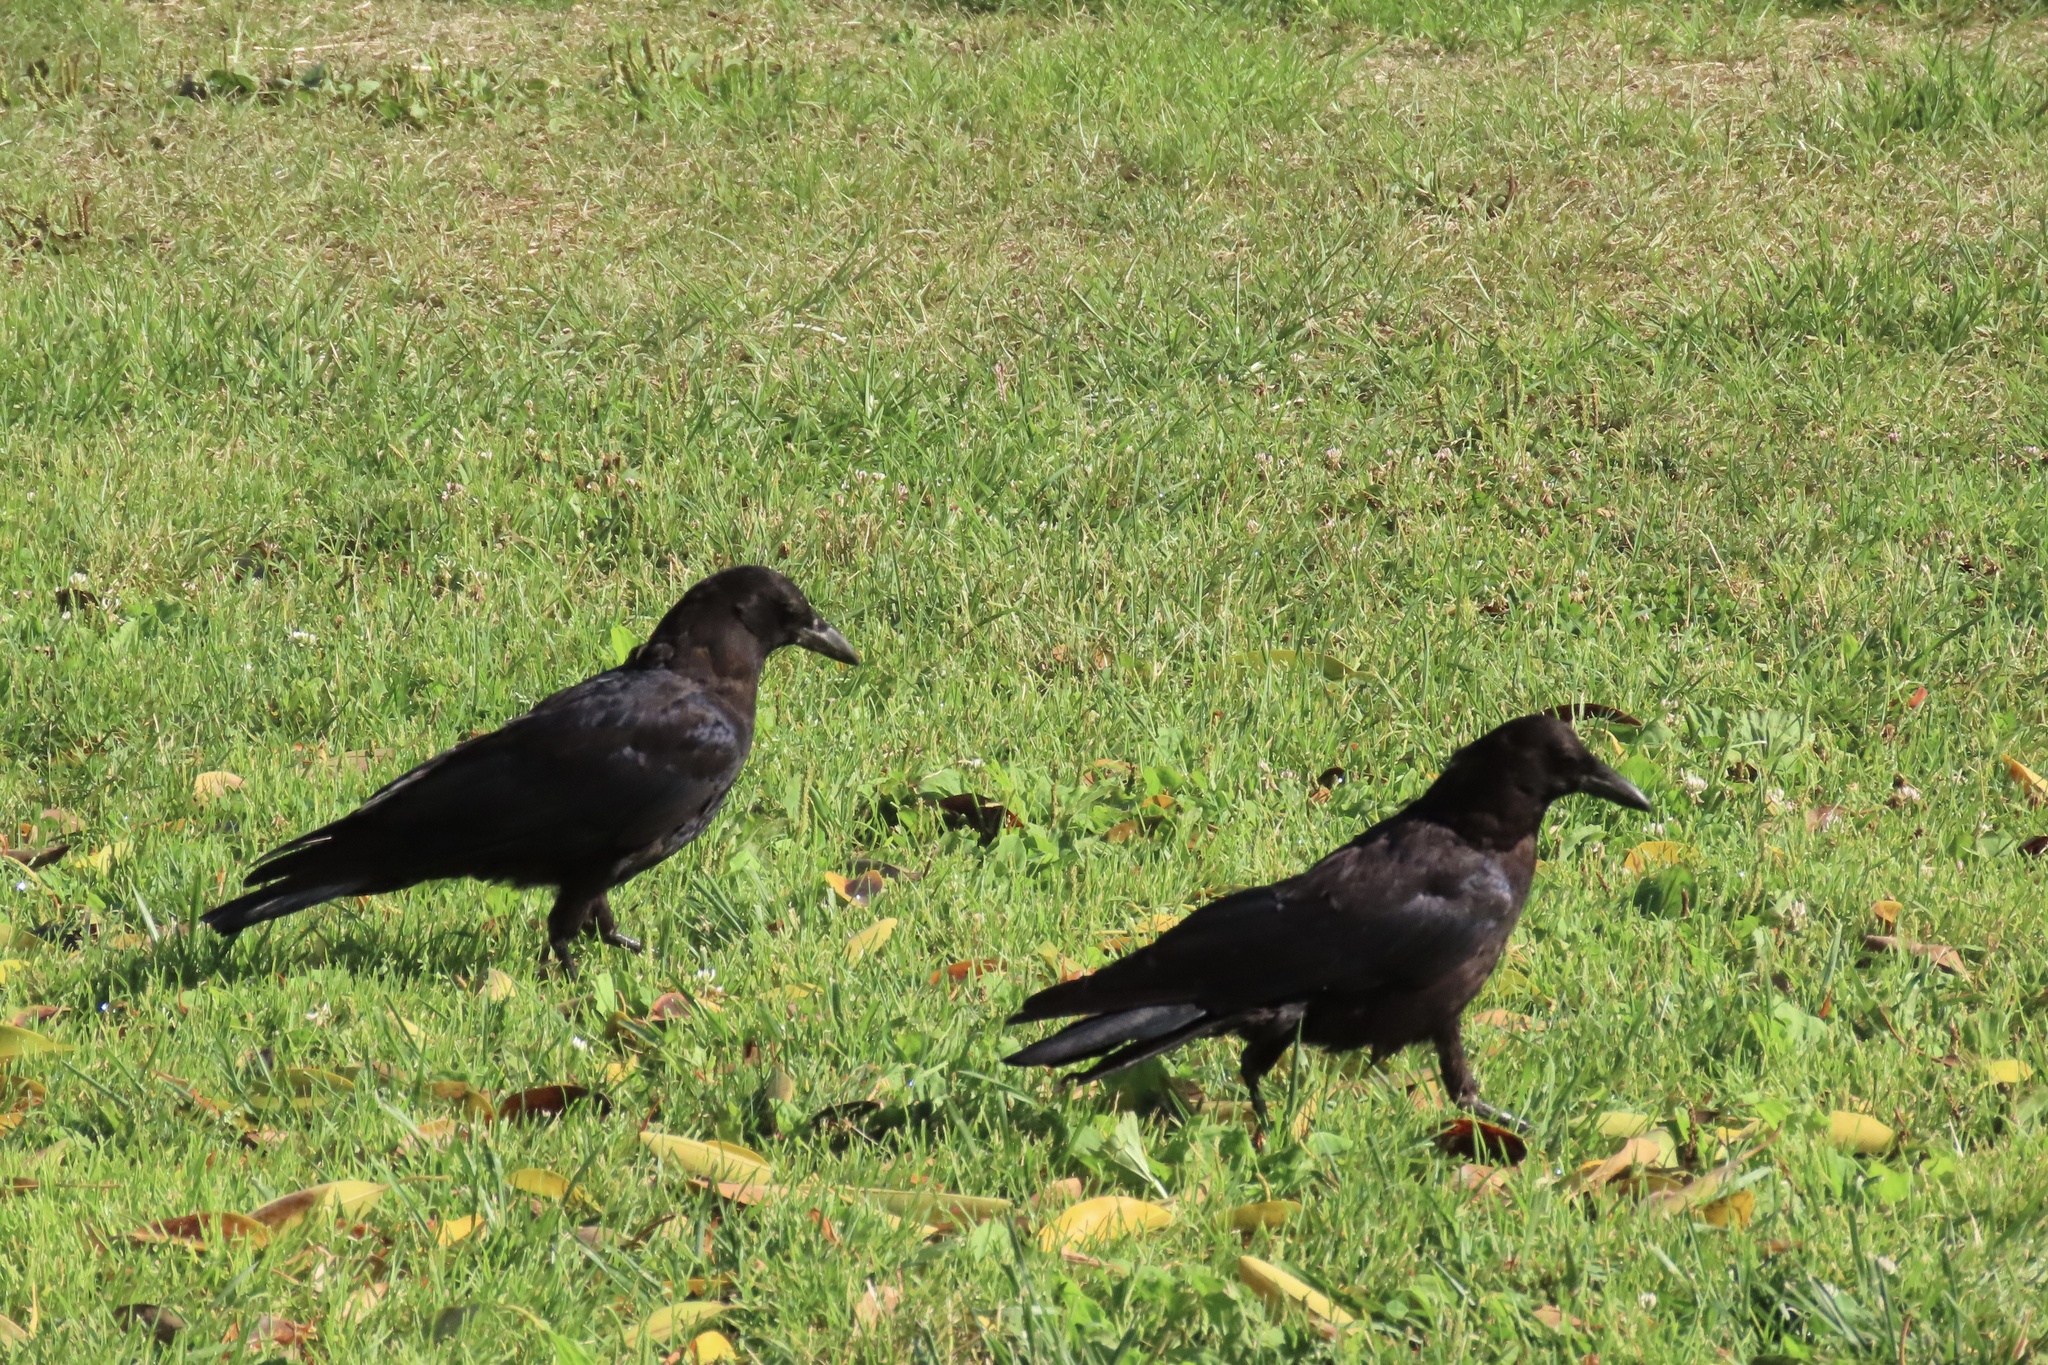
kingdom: Animalia
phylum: Chordata
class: Aves
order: Passeriformes
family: Corvidae
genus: Corvus
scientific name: Corvus brachyrhynchos
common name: American crow
